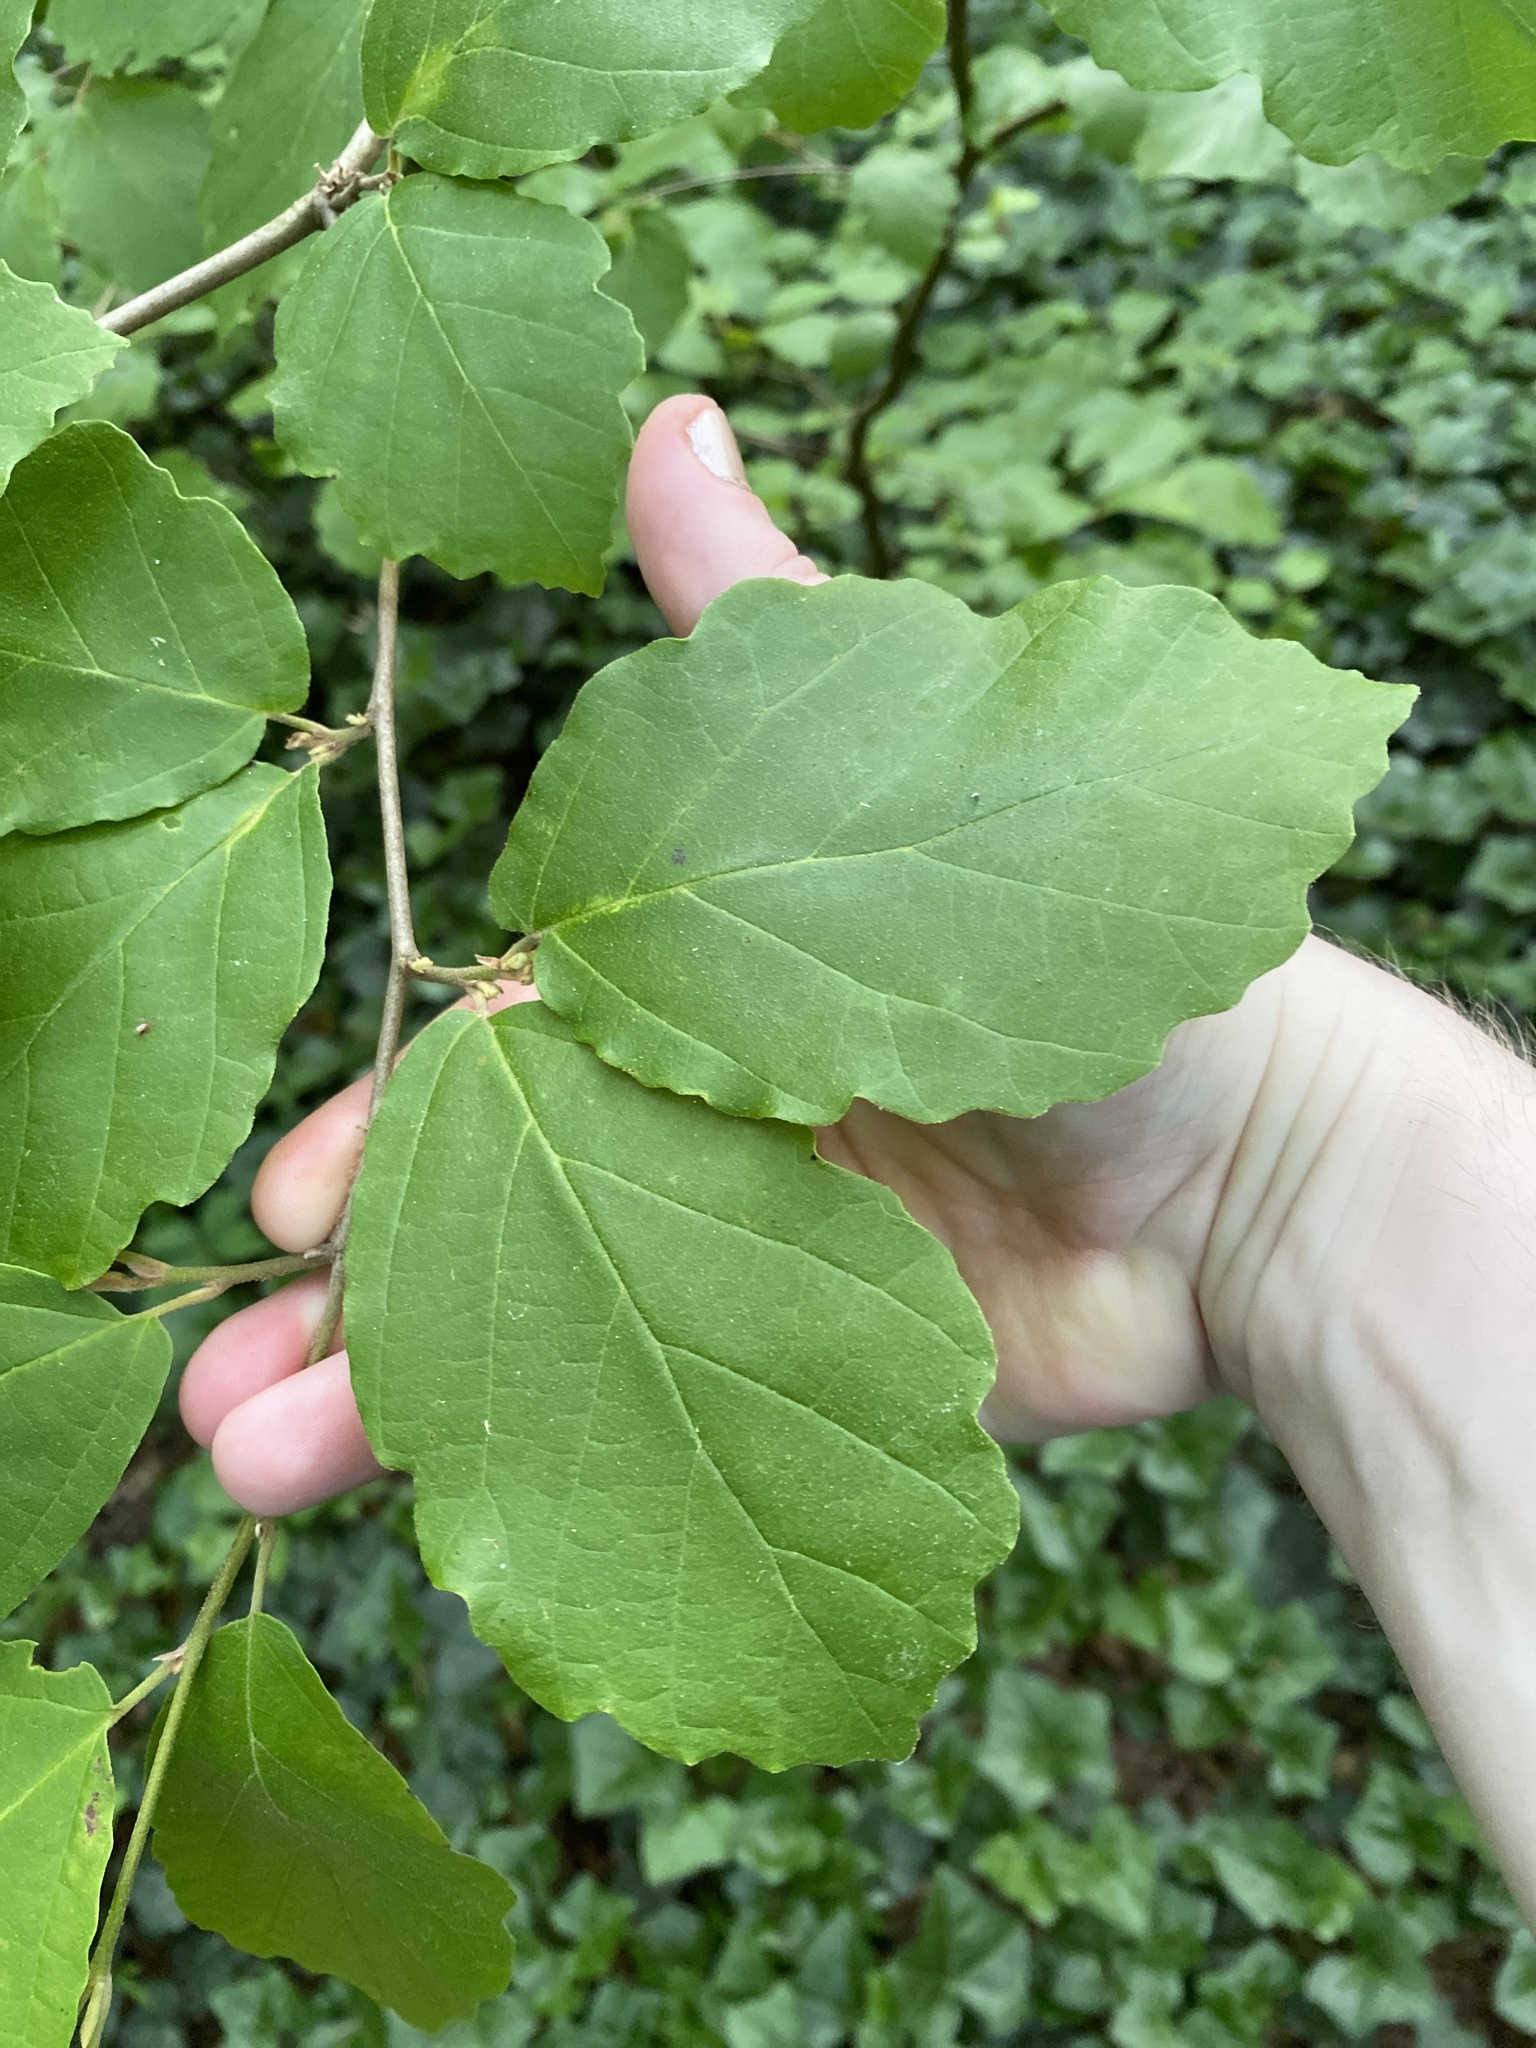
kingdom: Plantae
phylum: Tracheophyta
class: Magnoliopsida
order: Saxifragales
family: Hamamelidaceae
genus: Hamamelis
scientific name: Hamamelis virginiana
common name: Witch-hazel
